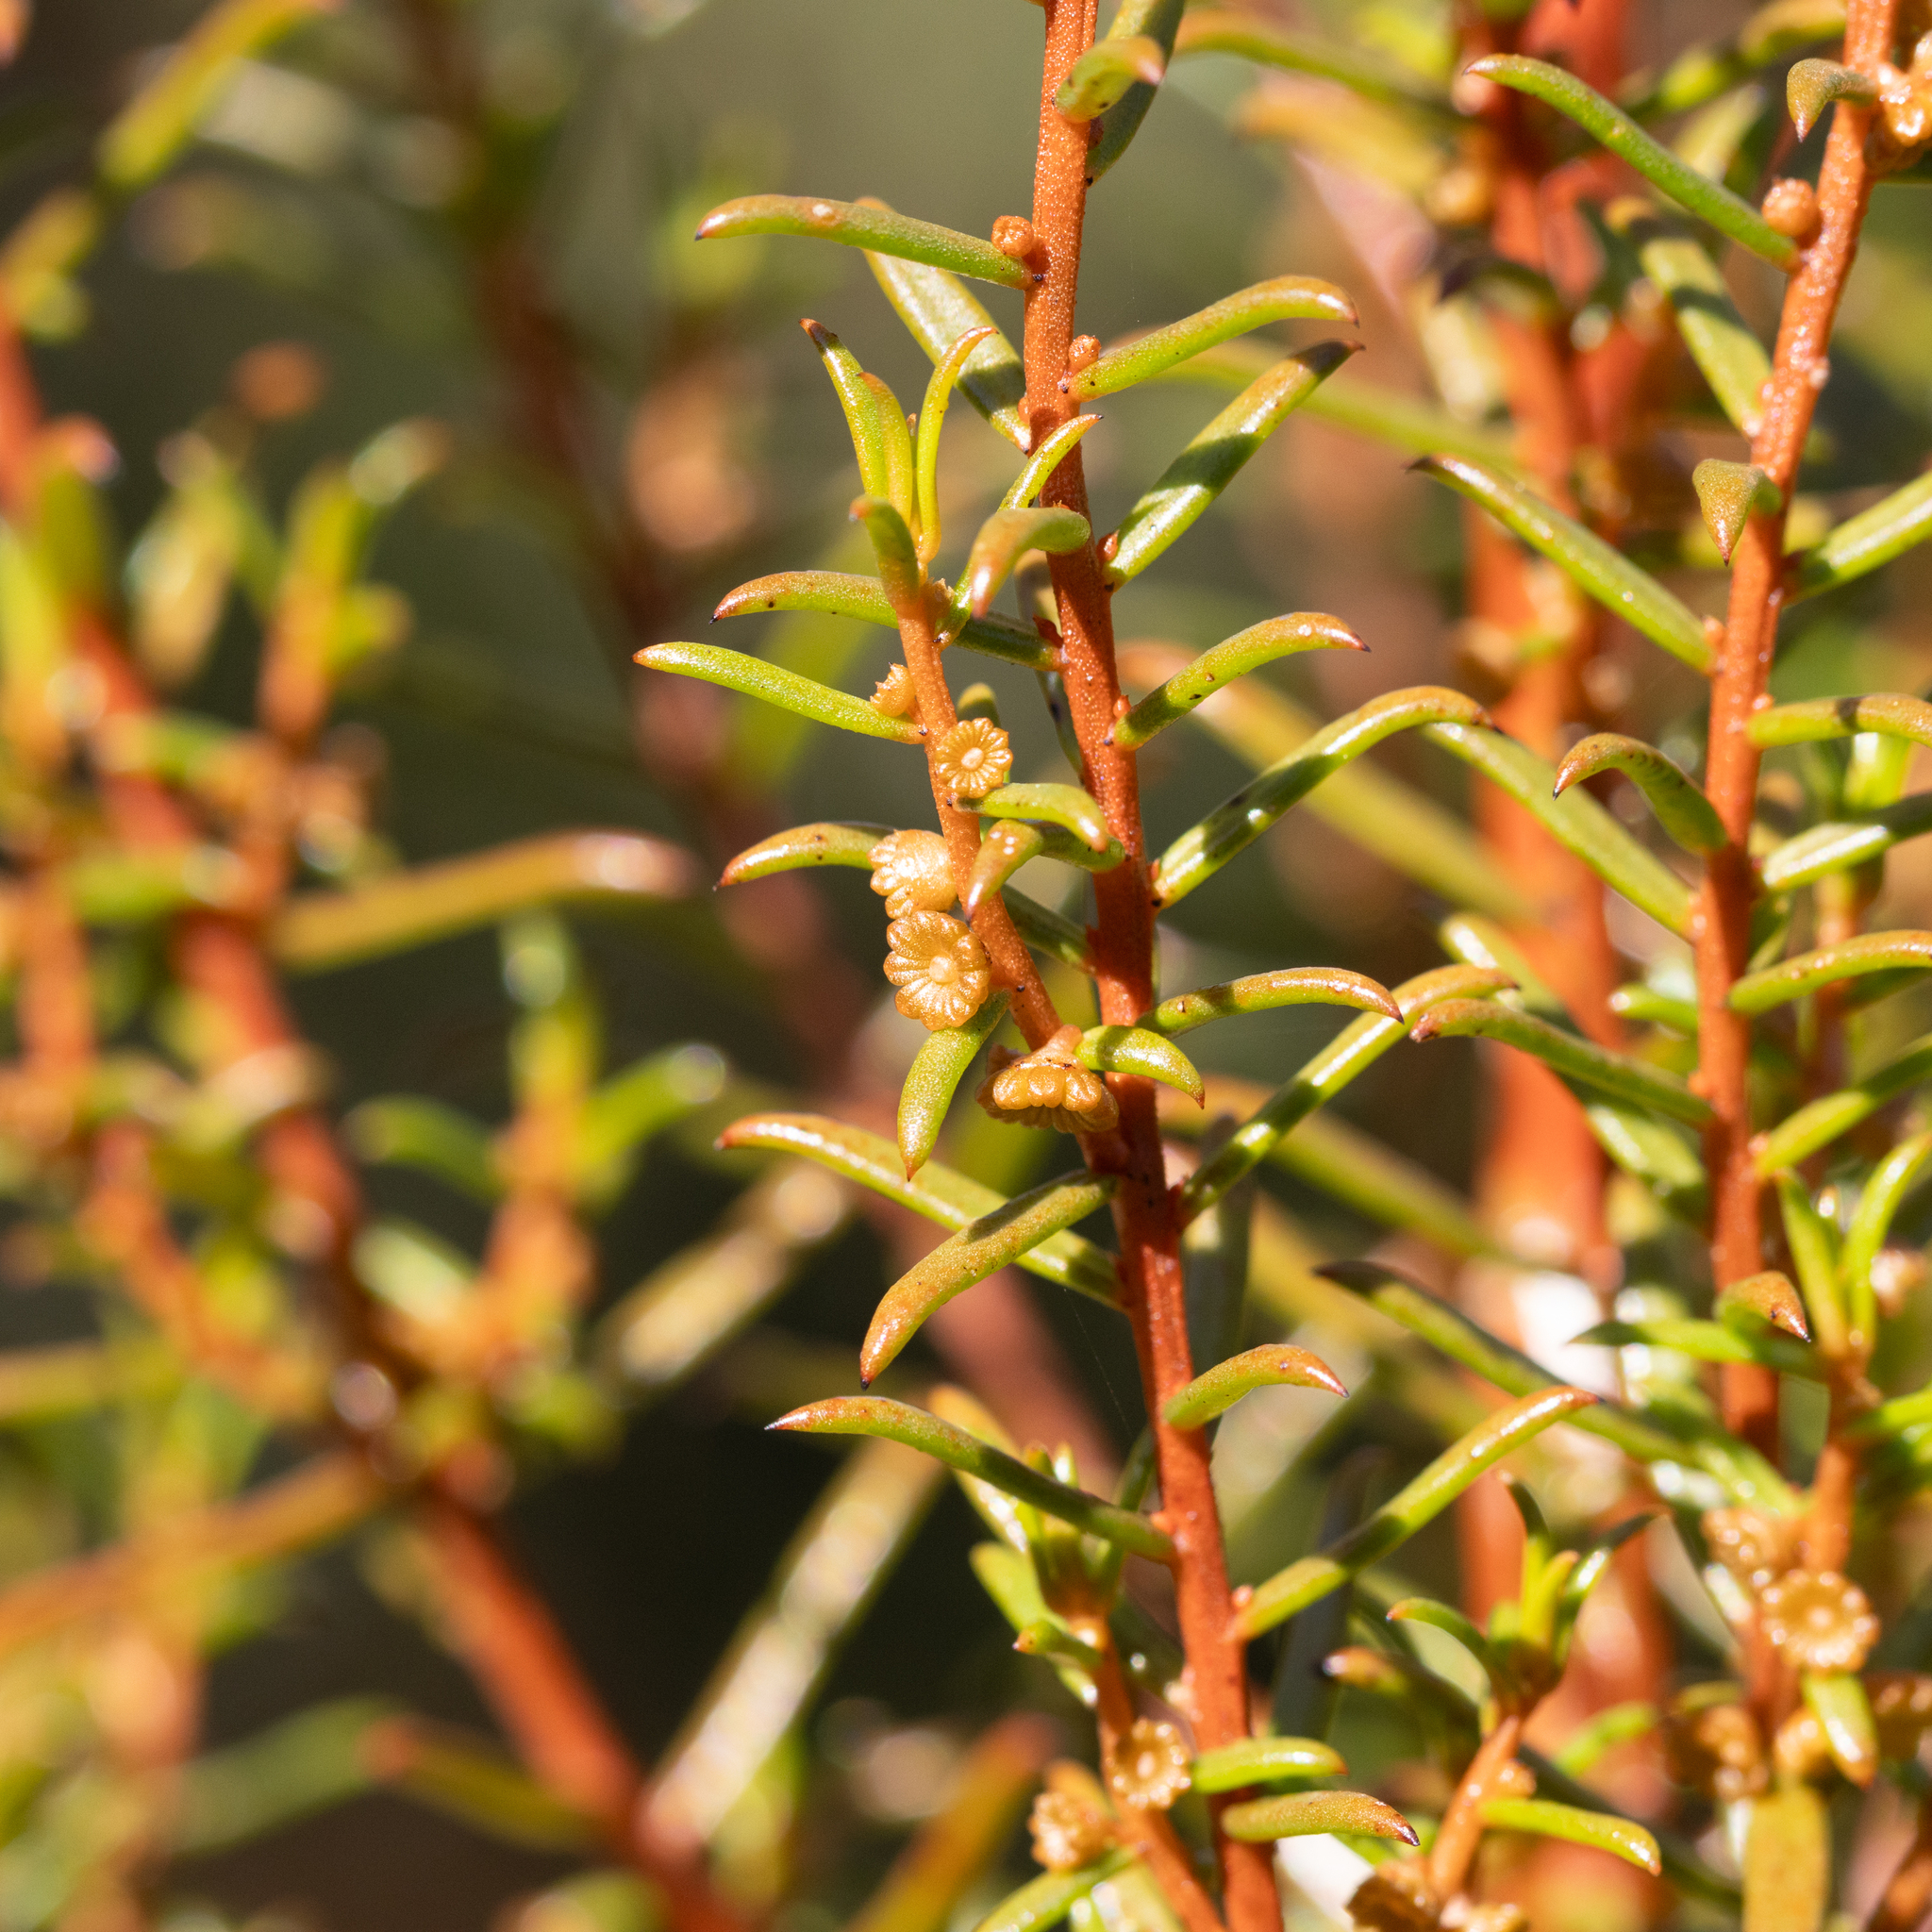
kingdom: Plantae
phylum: Tracheophyta
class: Magnoliopsida
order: Brassicales
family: Gyrostemonaceae
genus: Gyrostemon
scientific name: Gyrostemon australasicus
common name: Wheelfruit
